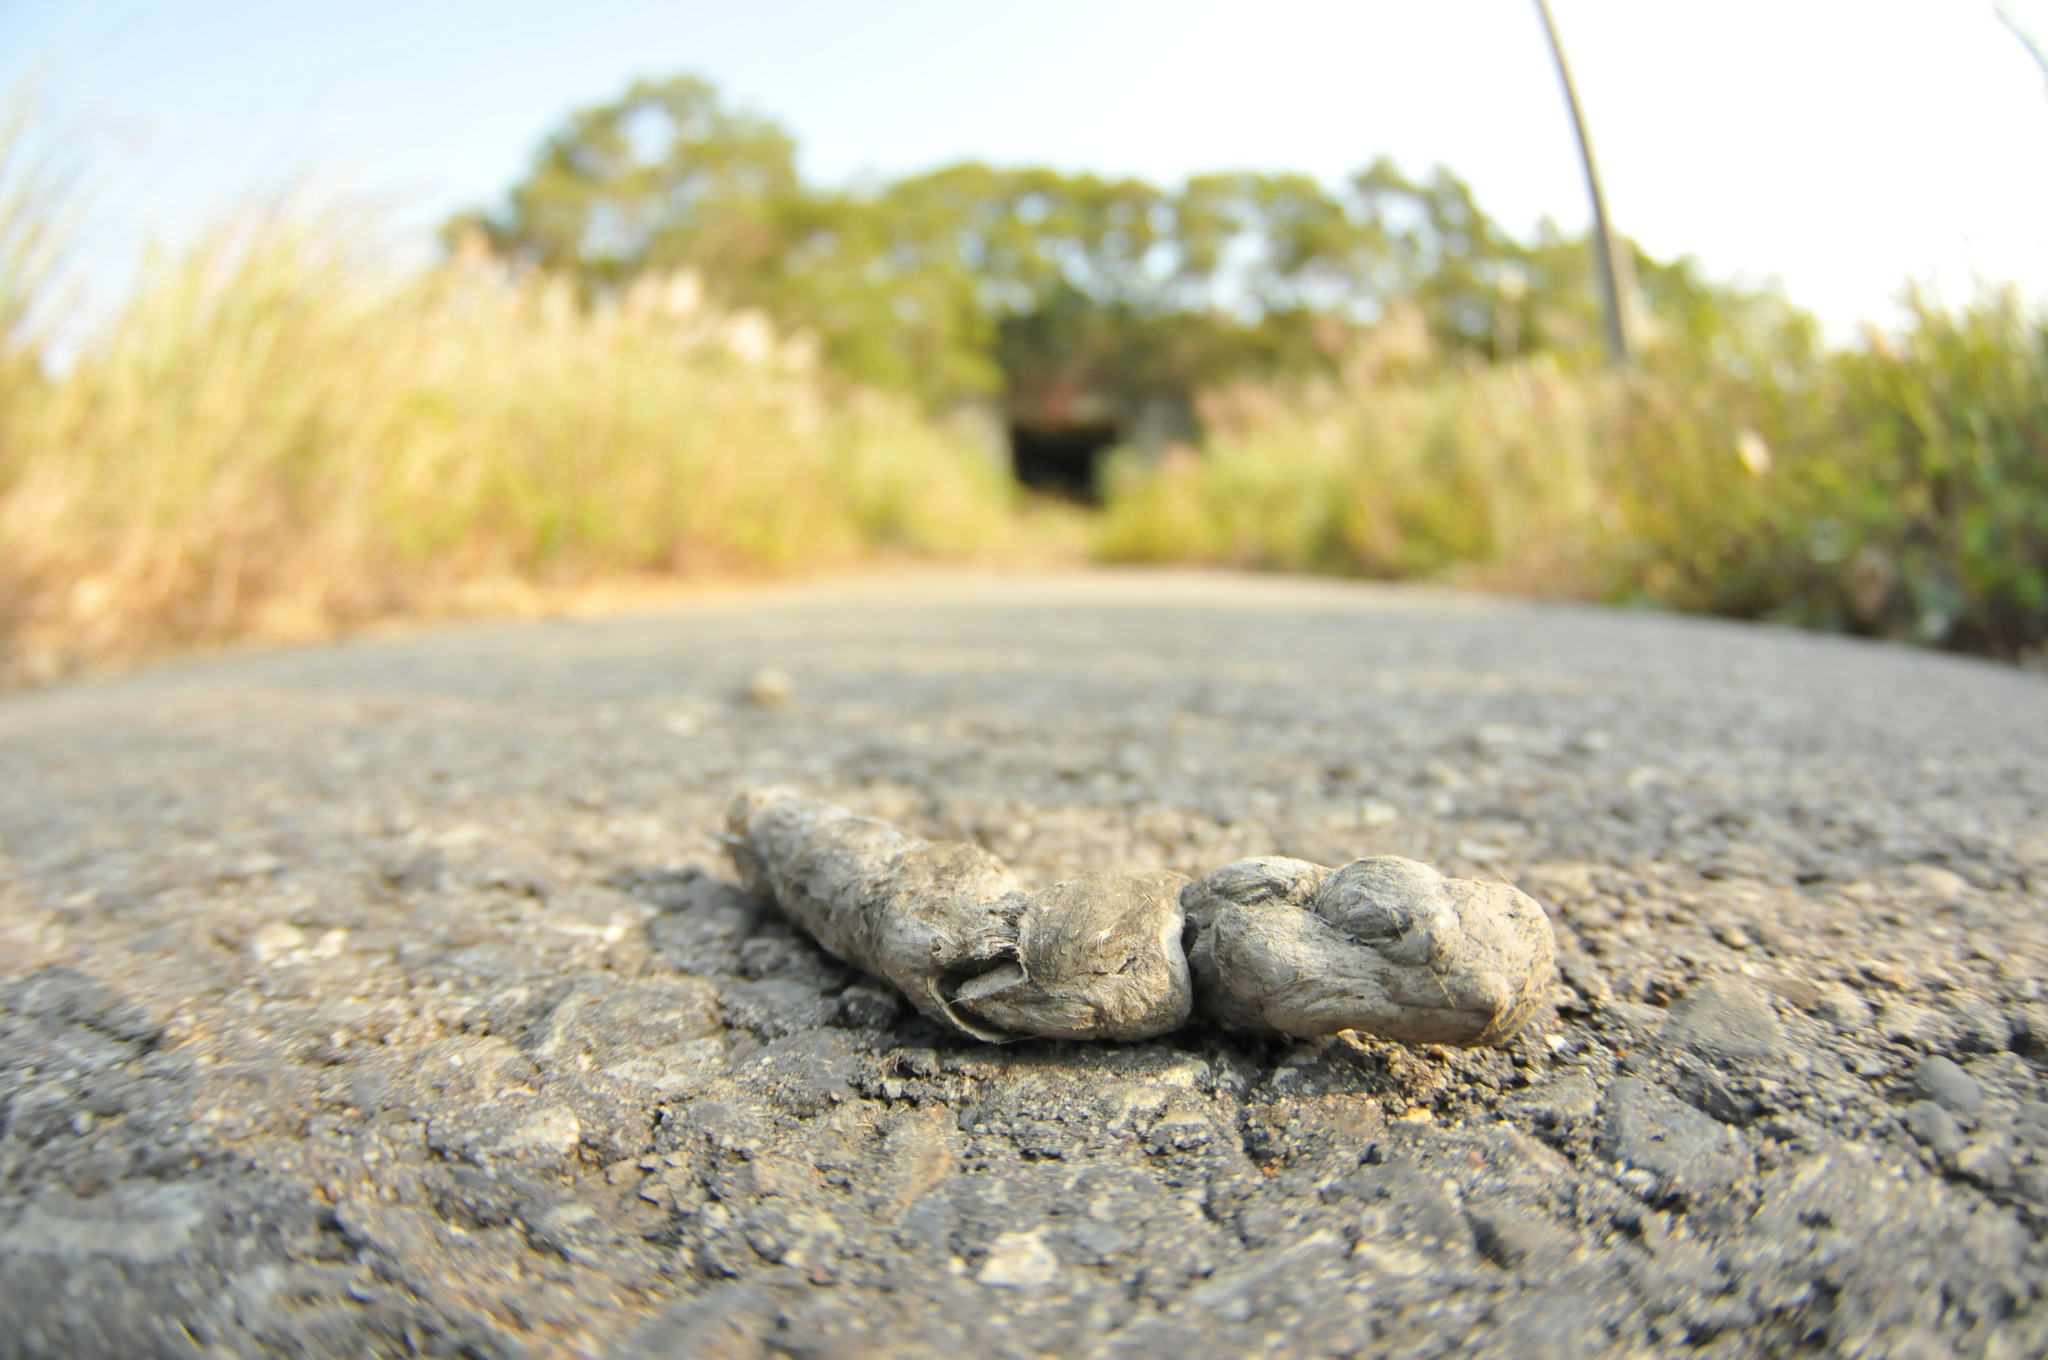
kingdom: Animalia
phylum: Chordata
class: Mammalia
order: Carnivora
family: Felidae
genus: Prionailurus
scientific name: Prionailurus bengalensis
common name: Leopard cat
